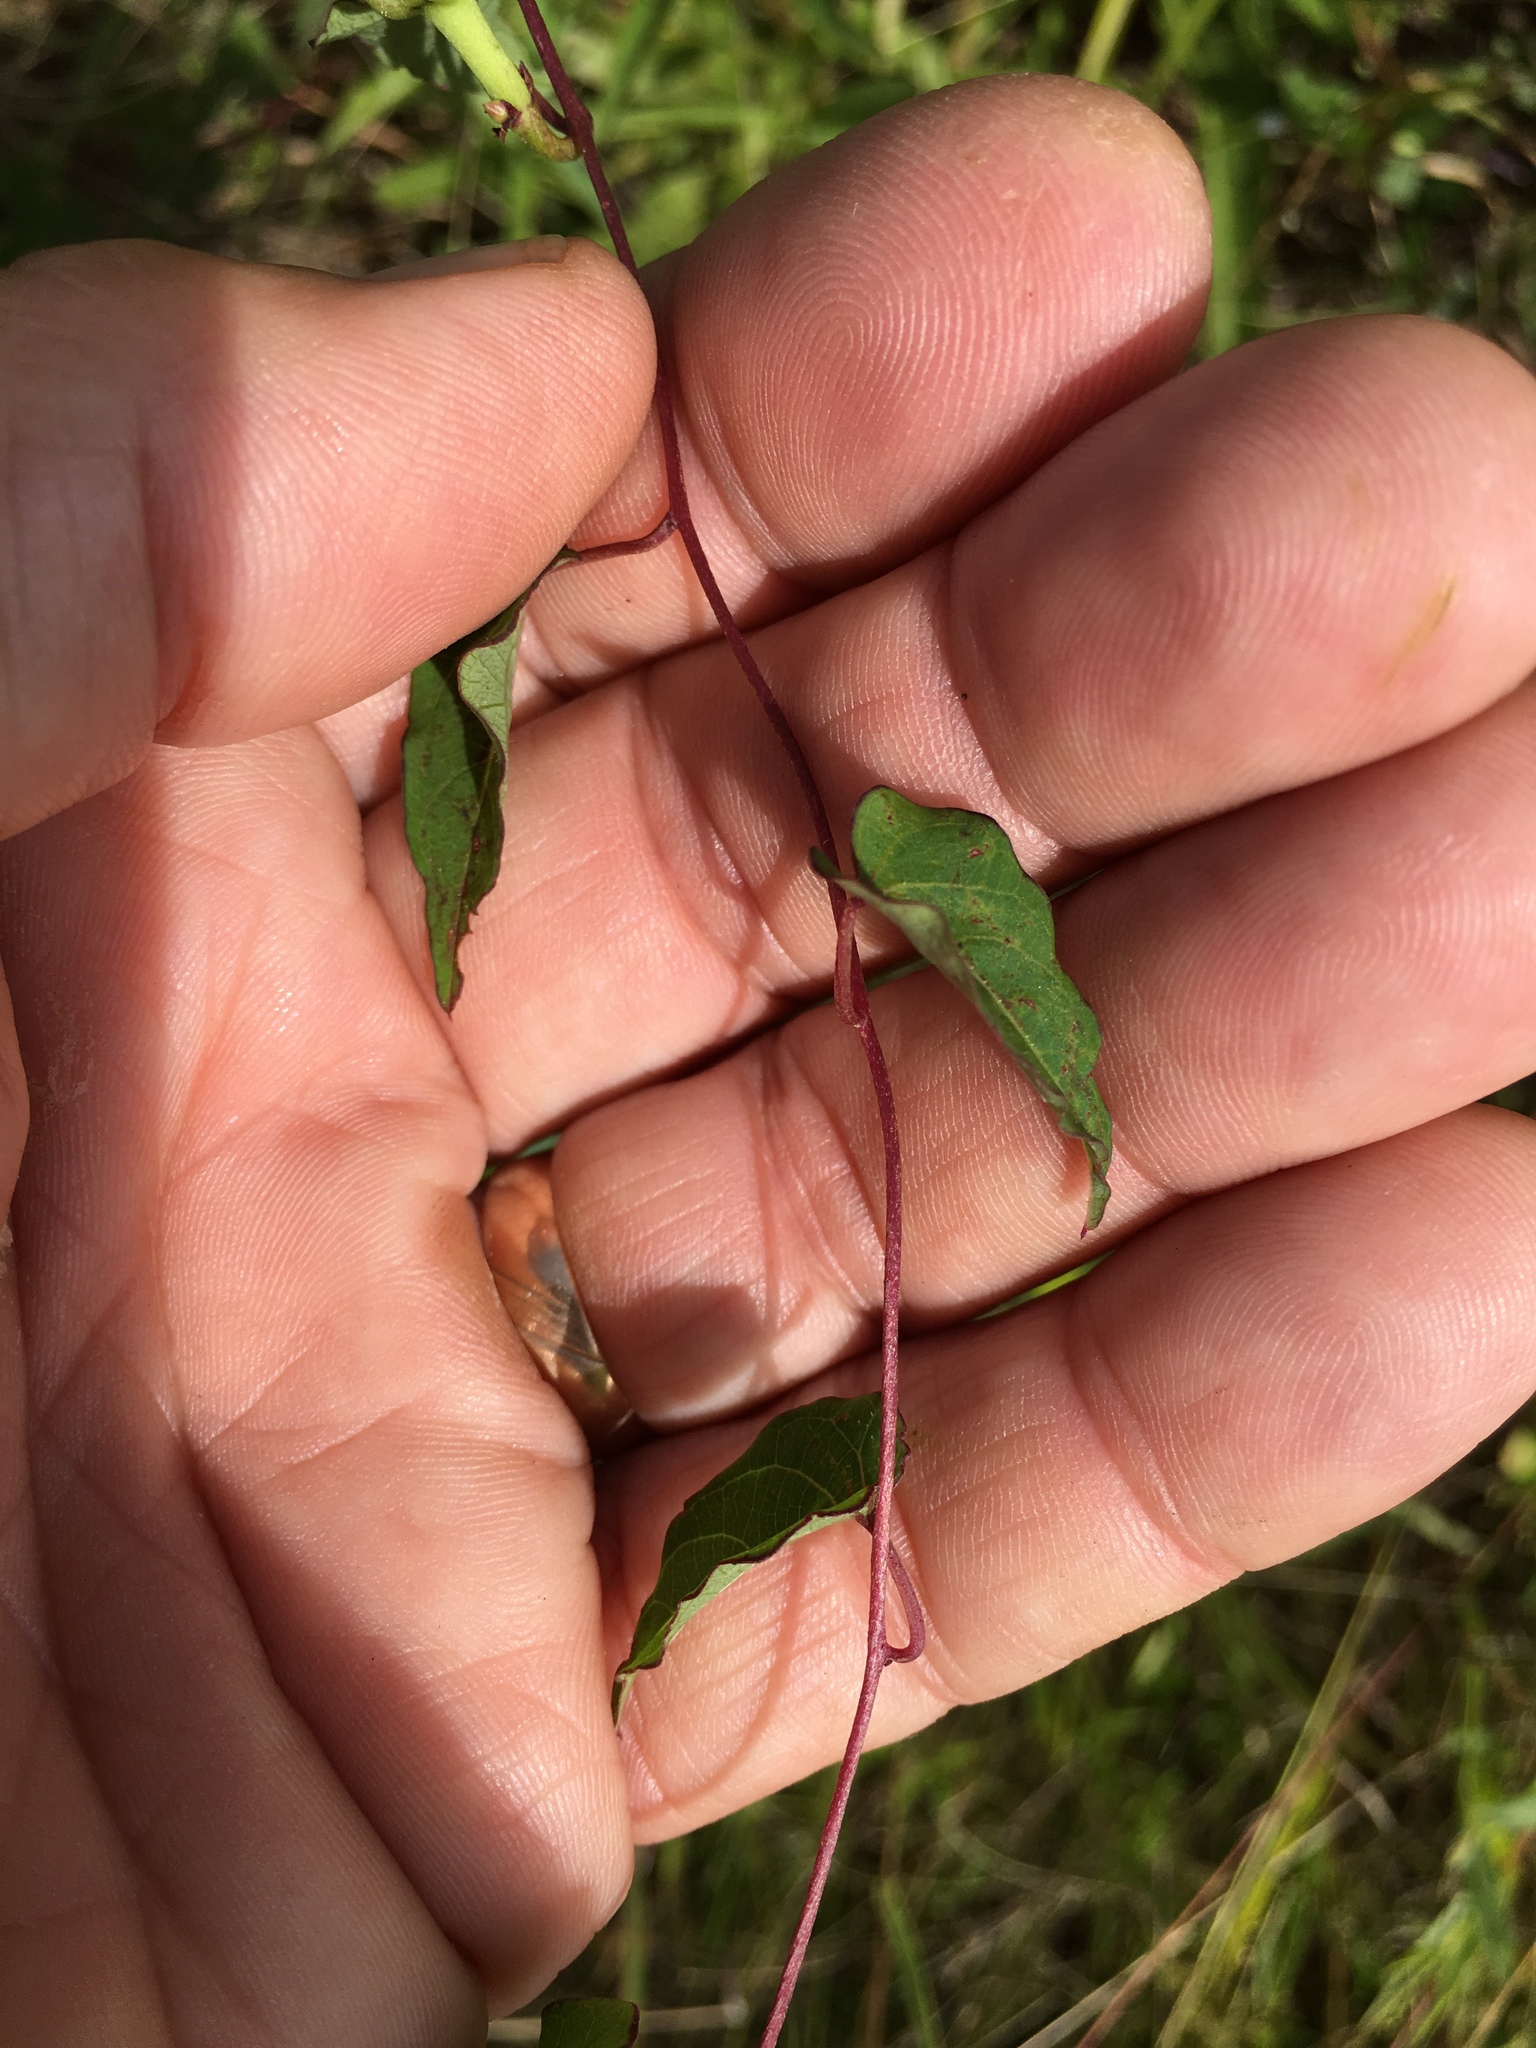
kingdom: Plantae
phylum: Tracheophyta
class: Magnoliopsida
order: Solanales
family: Convolvulaceae
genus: Ipomoea
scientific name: Ipomoea pandurata
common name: Man-of-the-earth
